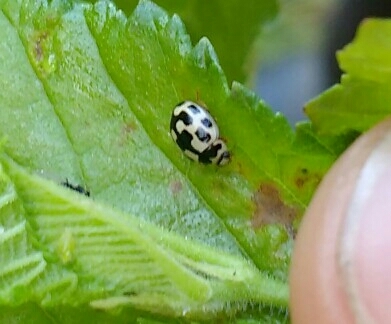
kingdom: Animalia
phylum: Arthropoda
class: Insecta
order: Coleoptera
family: Coccinellidae
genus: Propylaea
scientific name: Propylaea quatuordecimpunctata
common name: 14-spotted ladybird beetle
